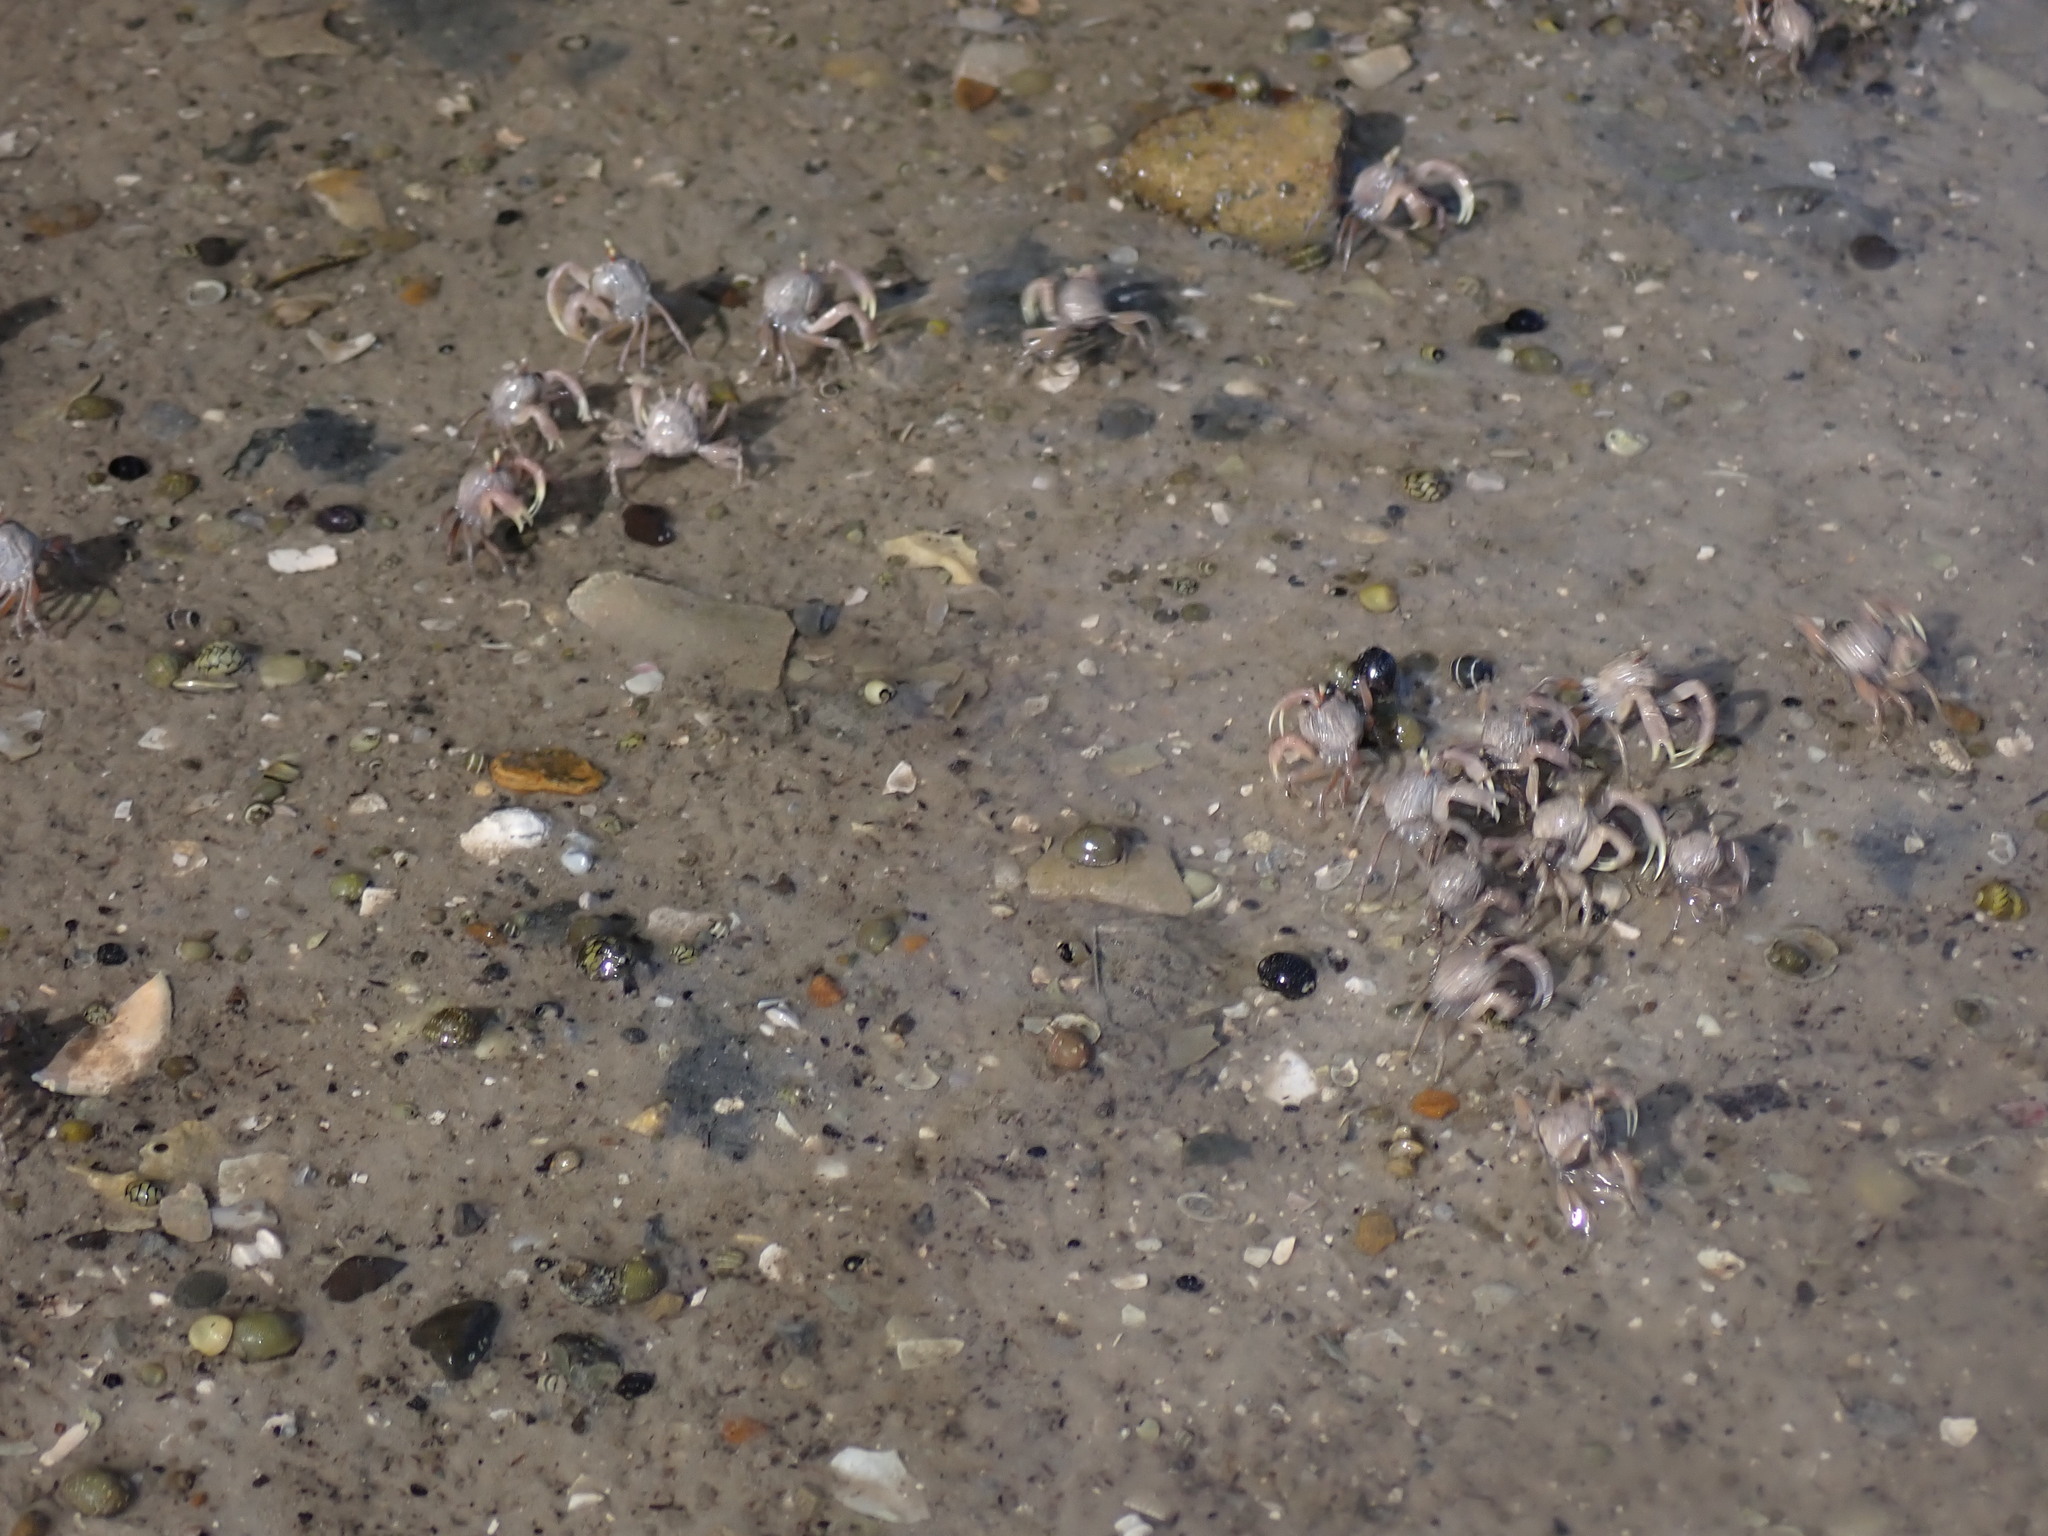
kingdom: Animalia
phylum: Arthropoda
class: Malacostraca
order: Decapoda
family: Dotillidae
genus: Dotilla
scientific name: Dotilla myctiroides
